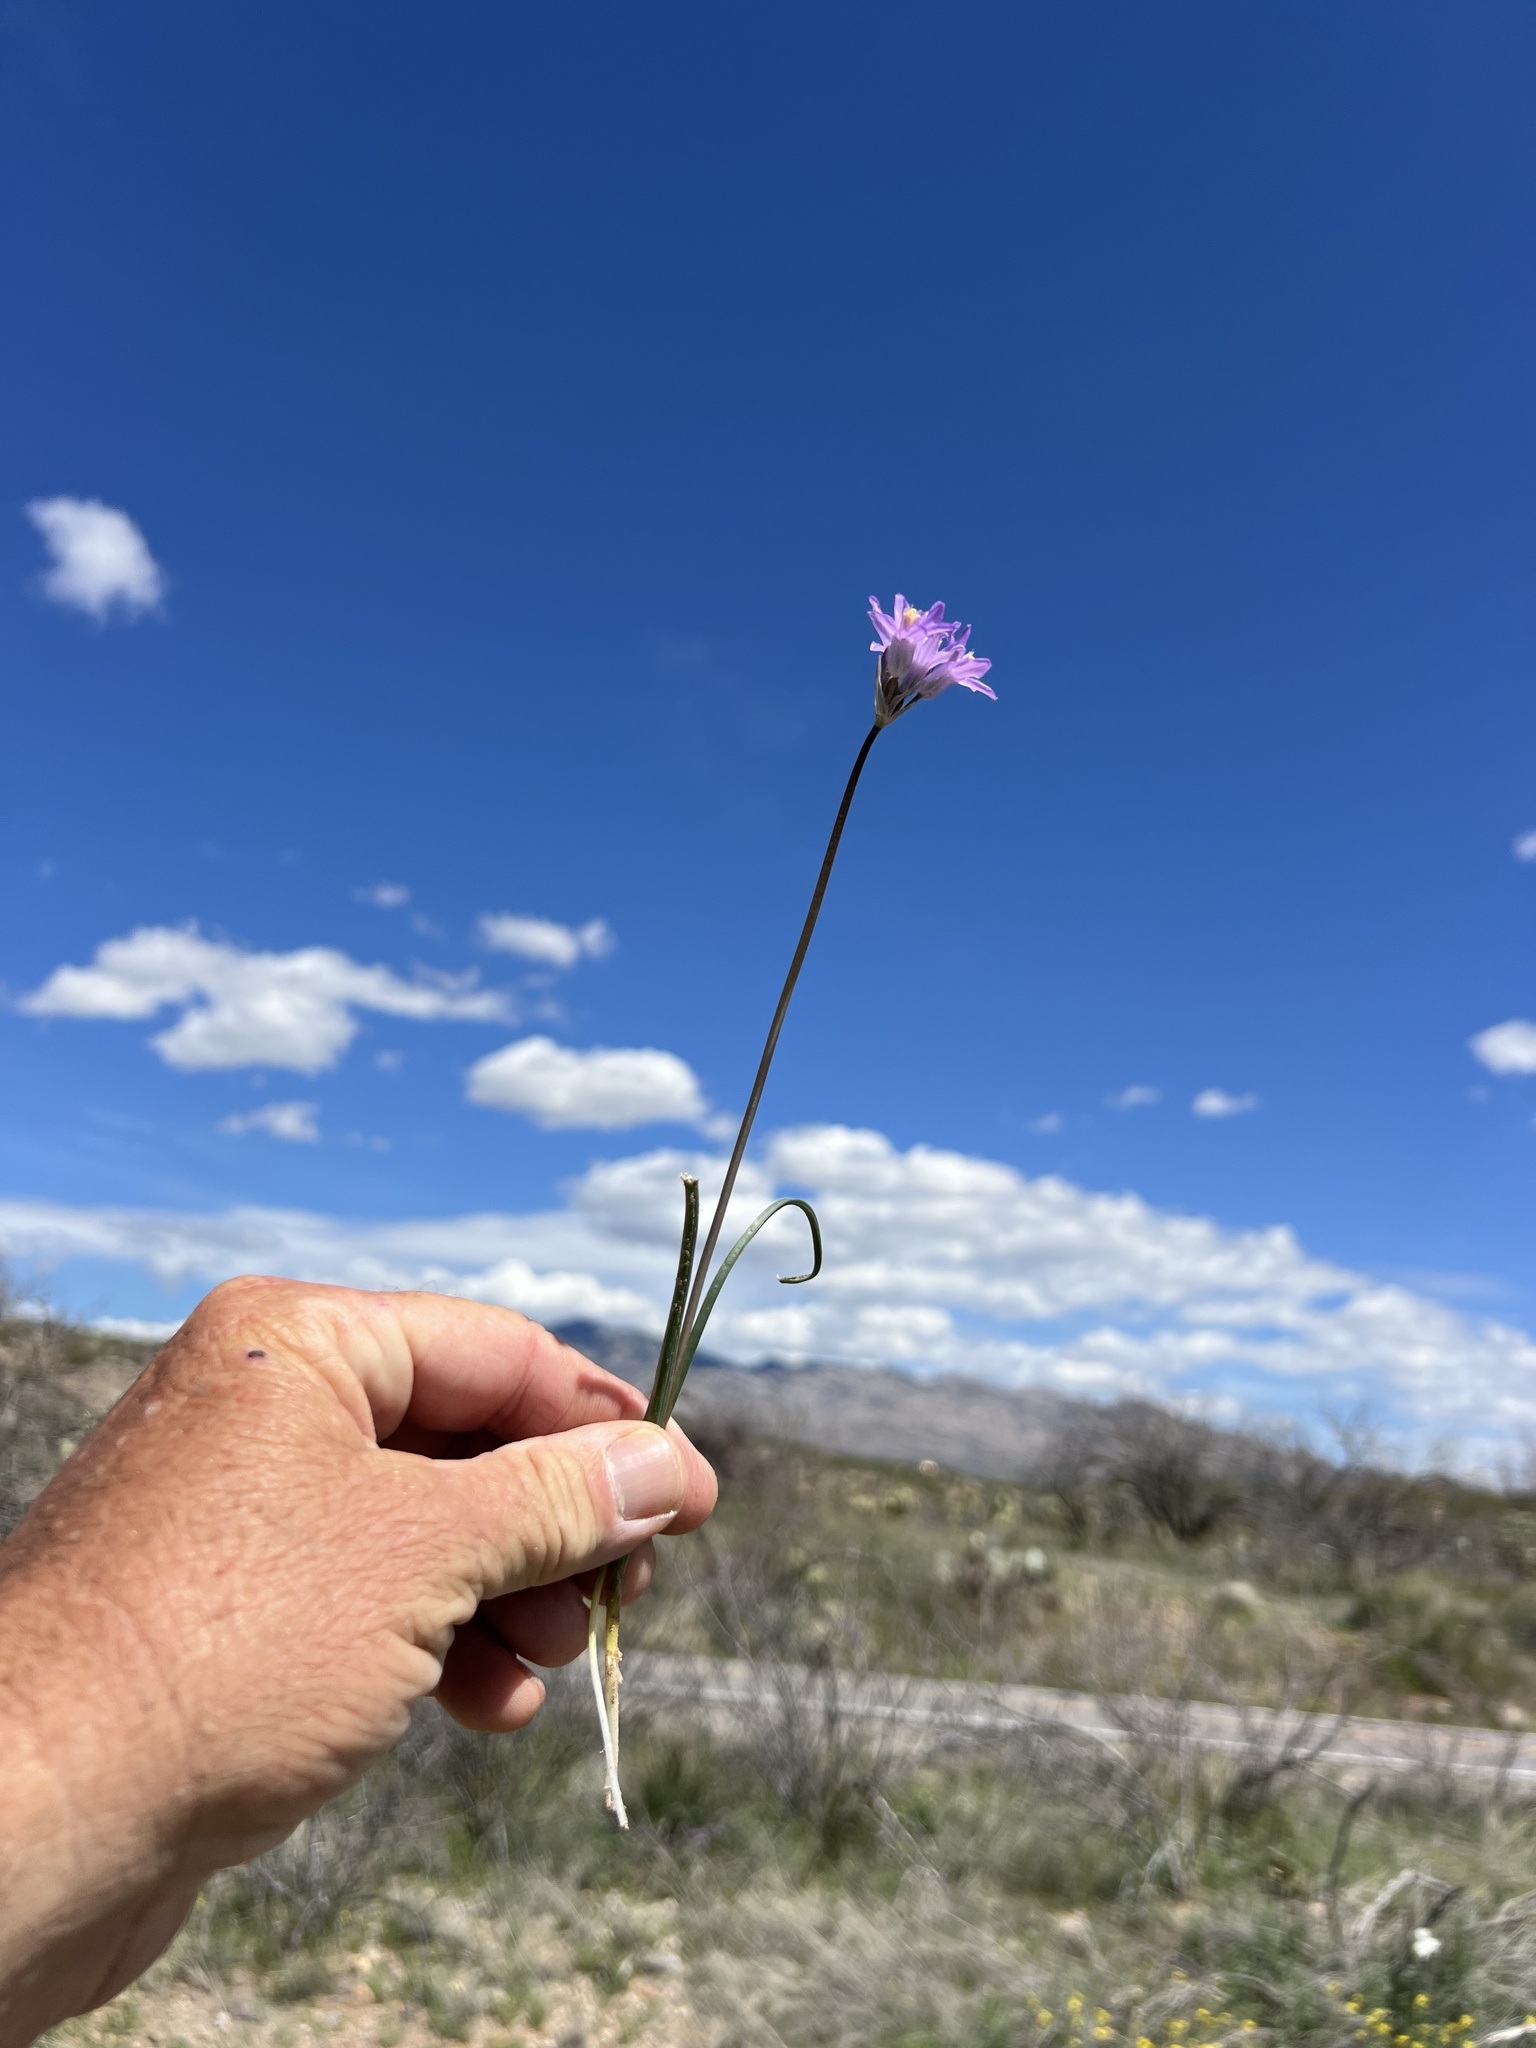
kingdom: Plantae
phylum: Tracheophyta
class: Liliopsida
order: Asparagales
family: Asparagaceae
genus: Dipterostemon
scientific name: Dipterostemon capitatus
